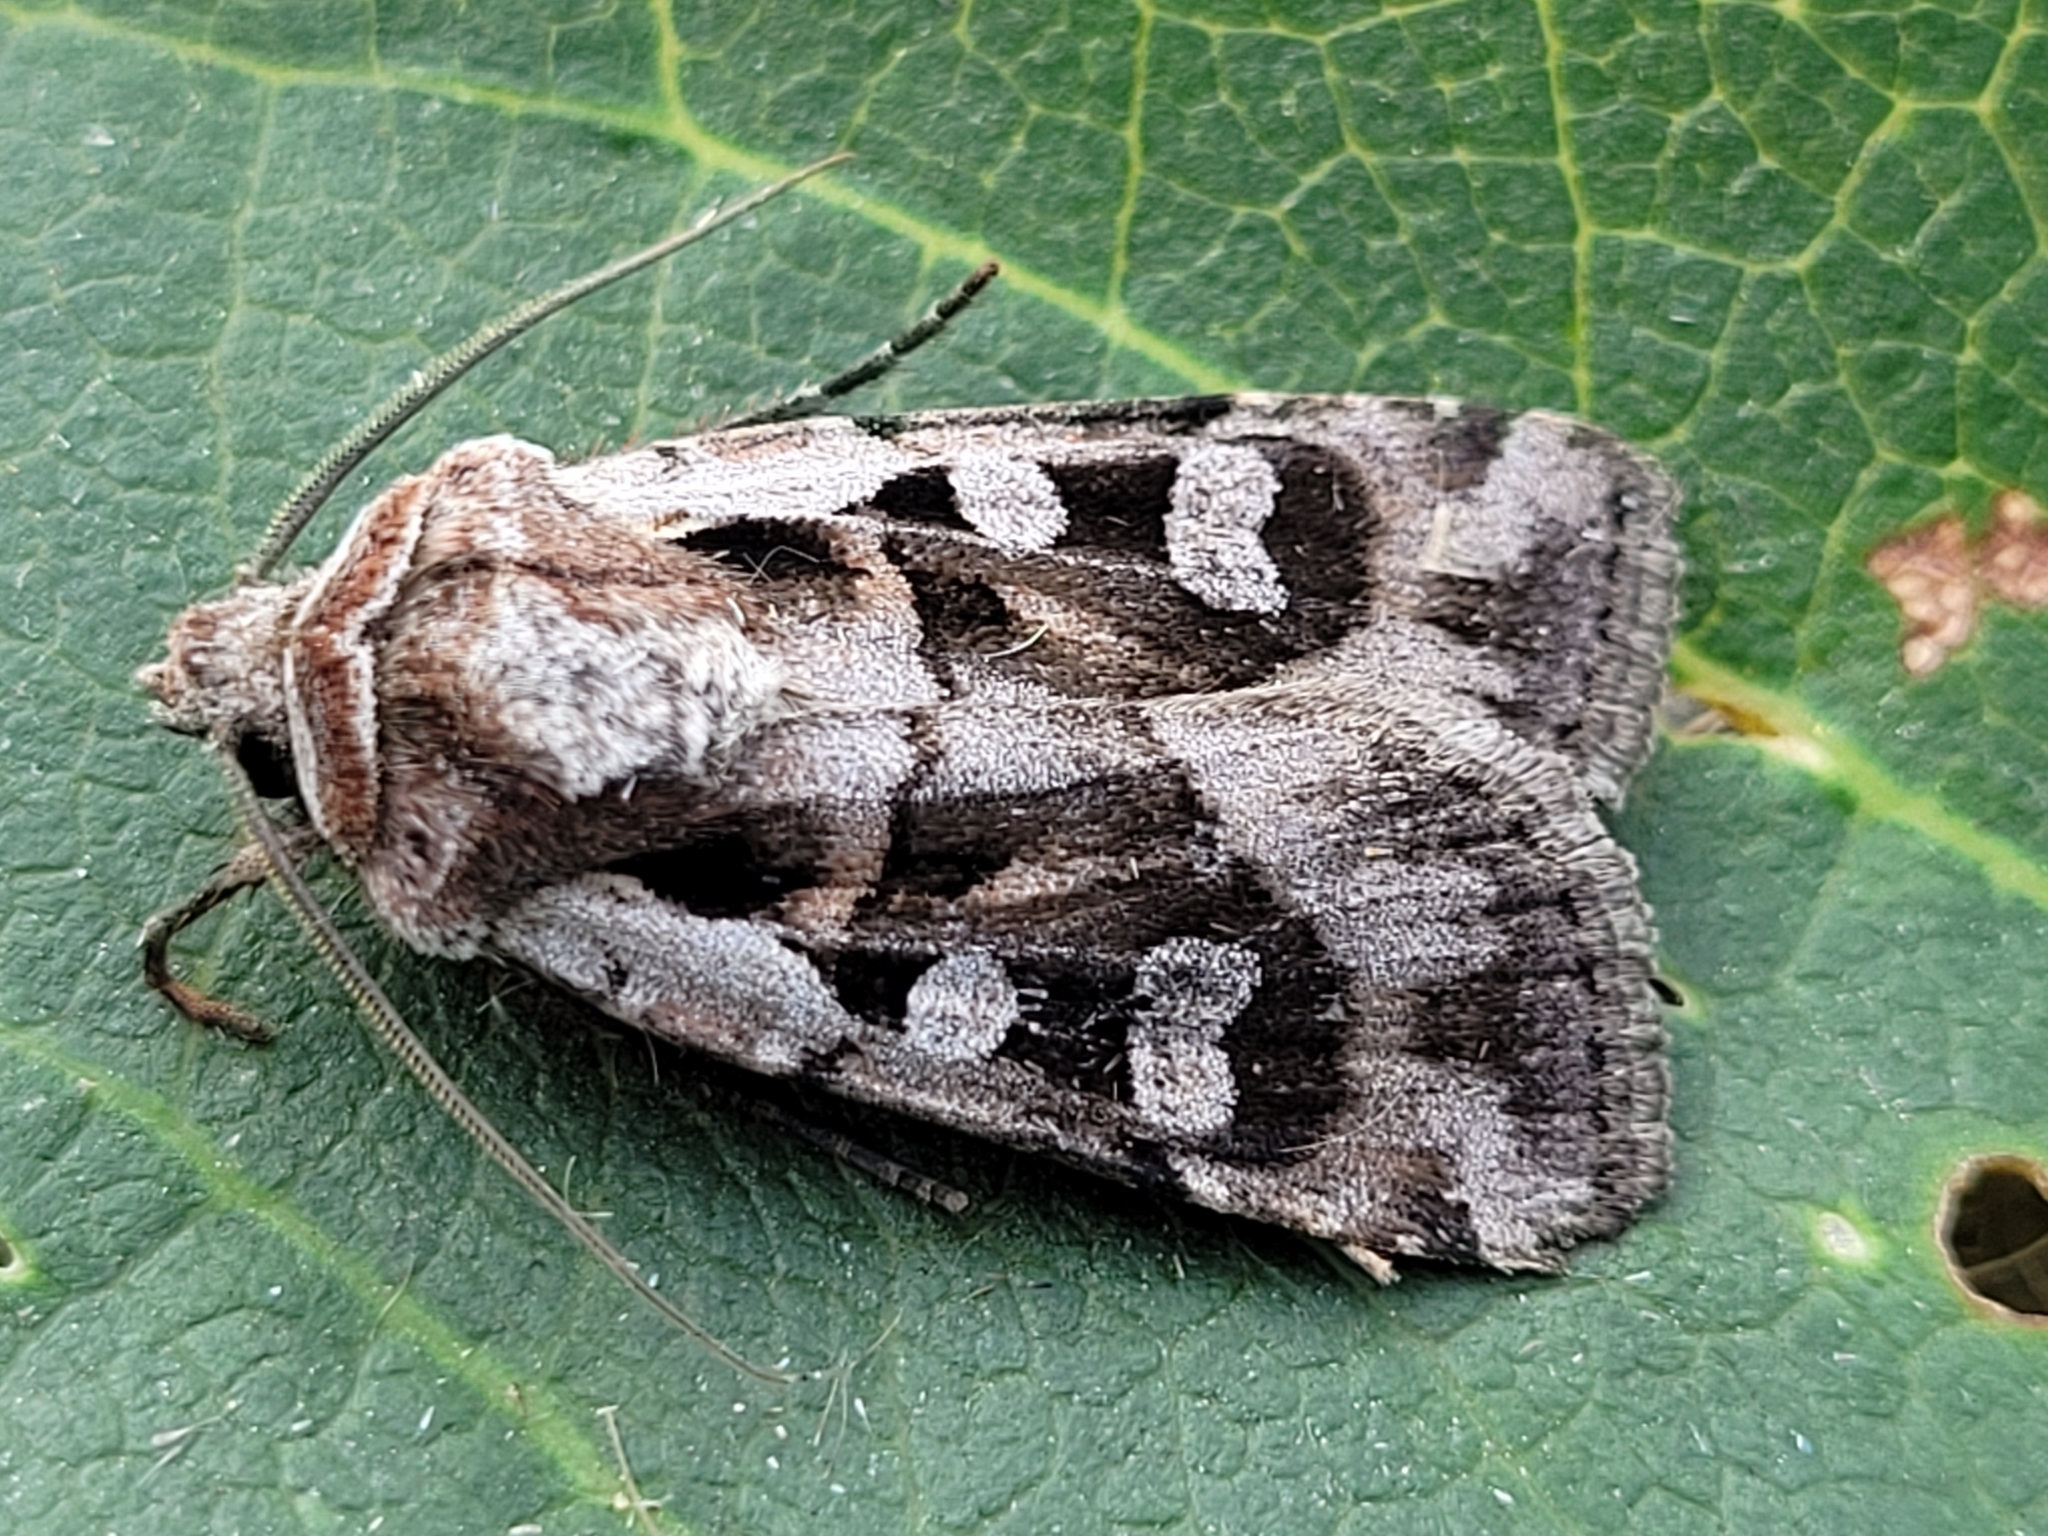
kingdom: Animalia
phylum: Arthropoda
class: Insecta
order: Lepidoptera
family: Noctuidae
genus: Euxoa
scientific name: Euxoa servita
